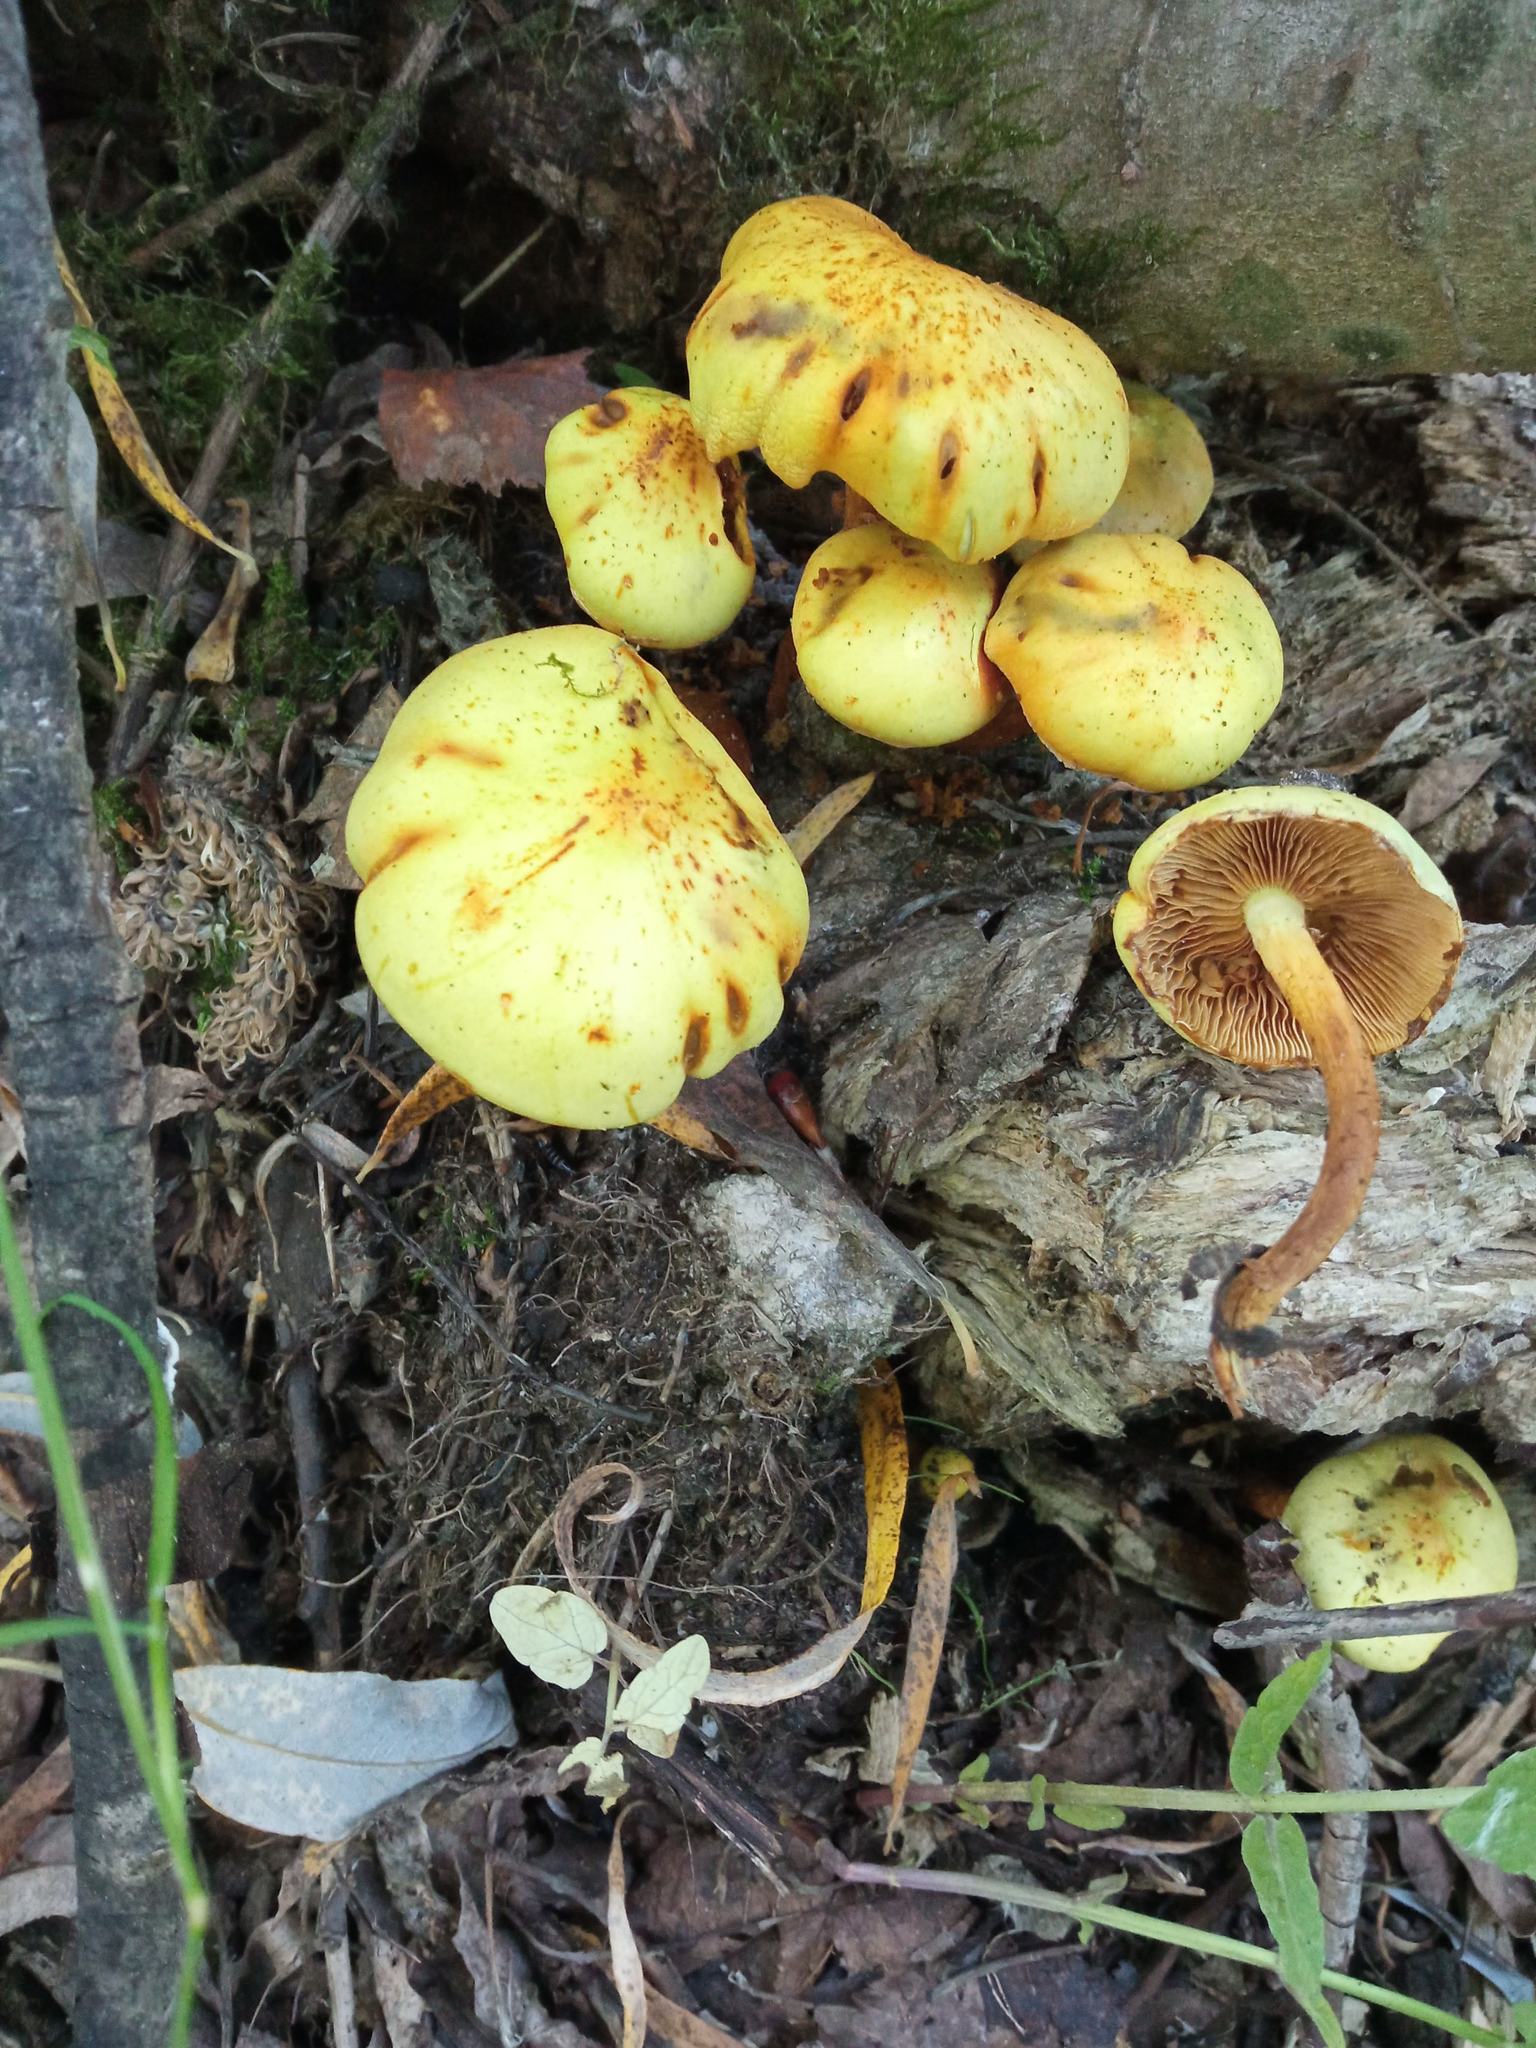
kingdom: Fungi
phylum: Basidiomycota
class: Agaricomycetes
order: Agaricales
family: Hymenogastraceae
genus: Flammula
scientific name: Flammula alnicola
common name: Alder scalycap
